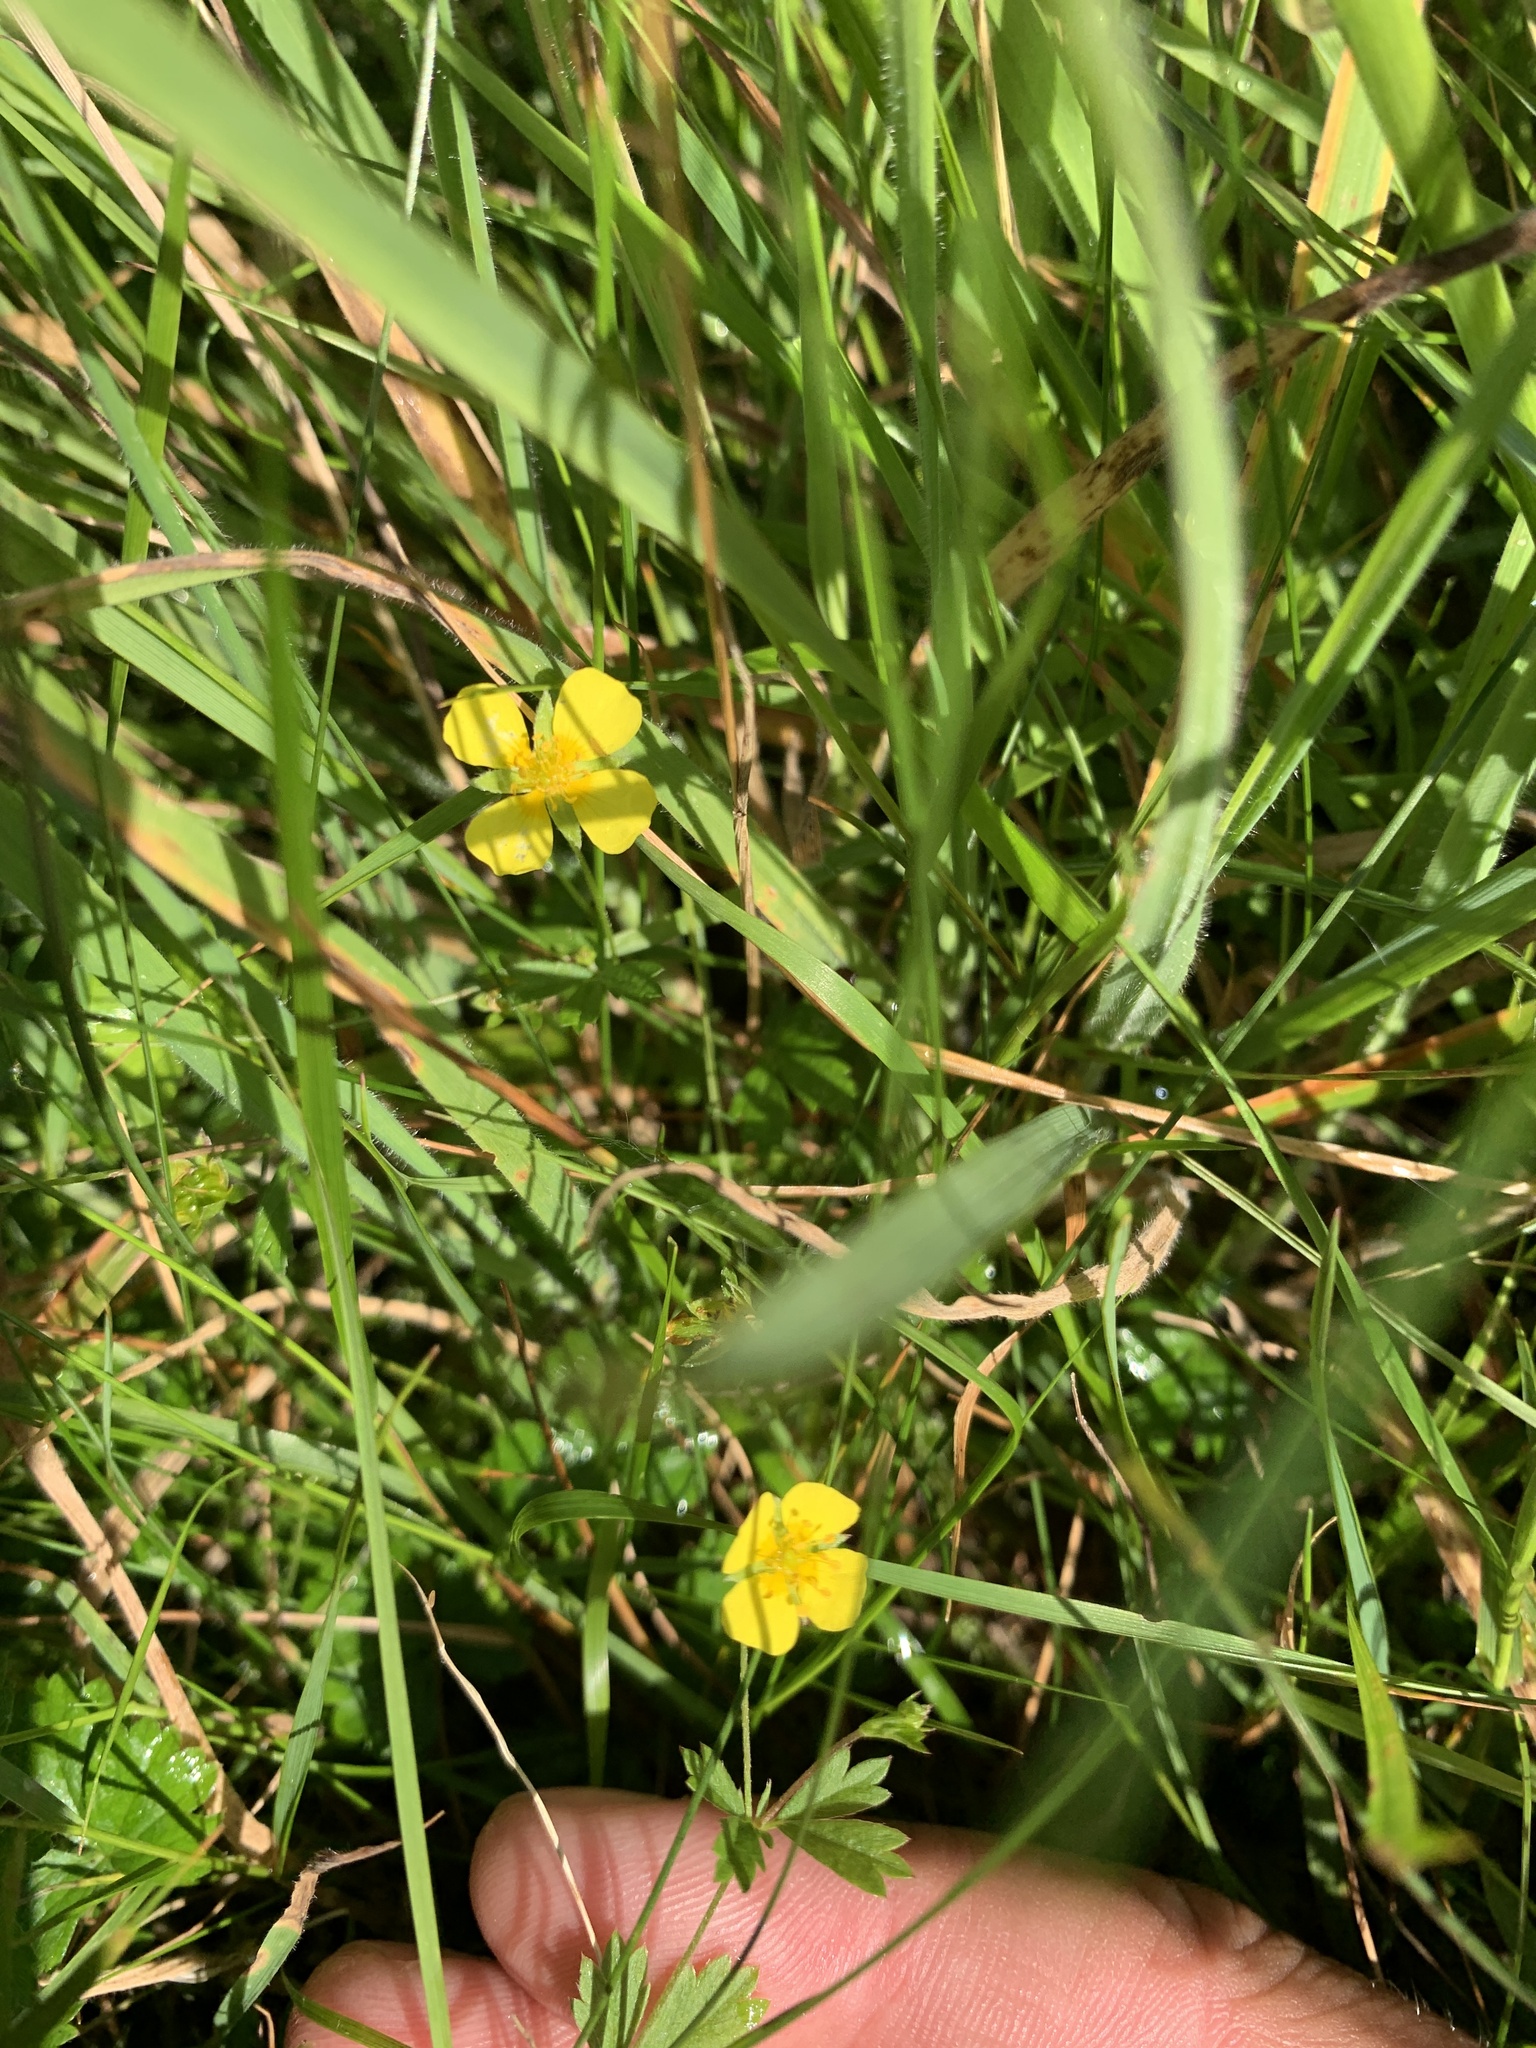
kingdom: Plantae
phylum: Tracheophyta
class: Magnoliopsida
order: Ranunculales
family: Ranunculaceae
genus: Ranunculus
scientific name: Ranunculus repens
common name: Creeping buttercup
